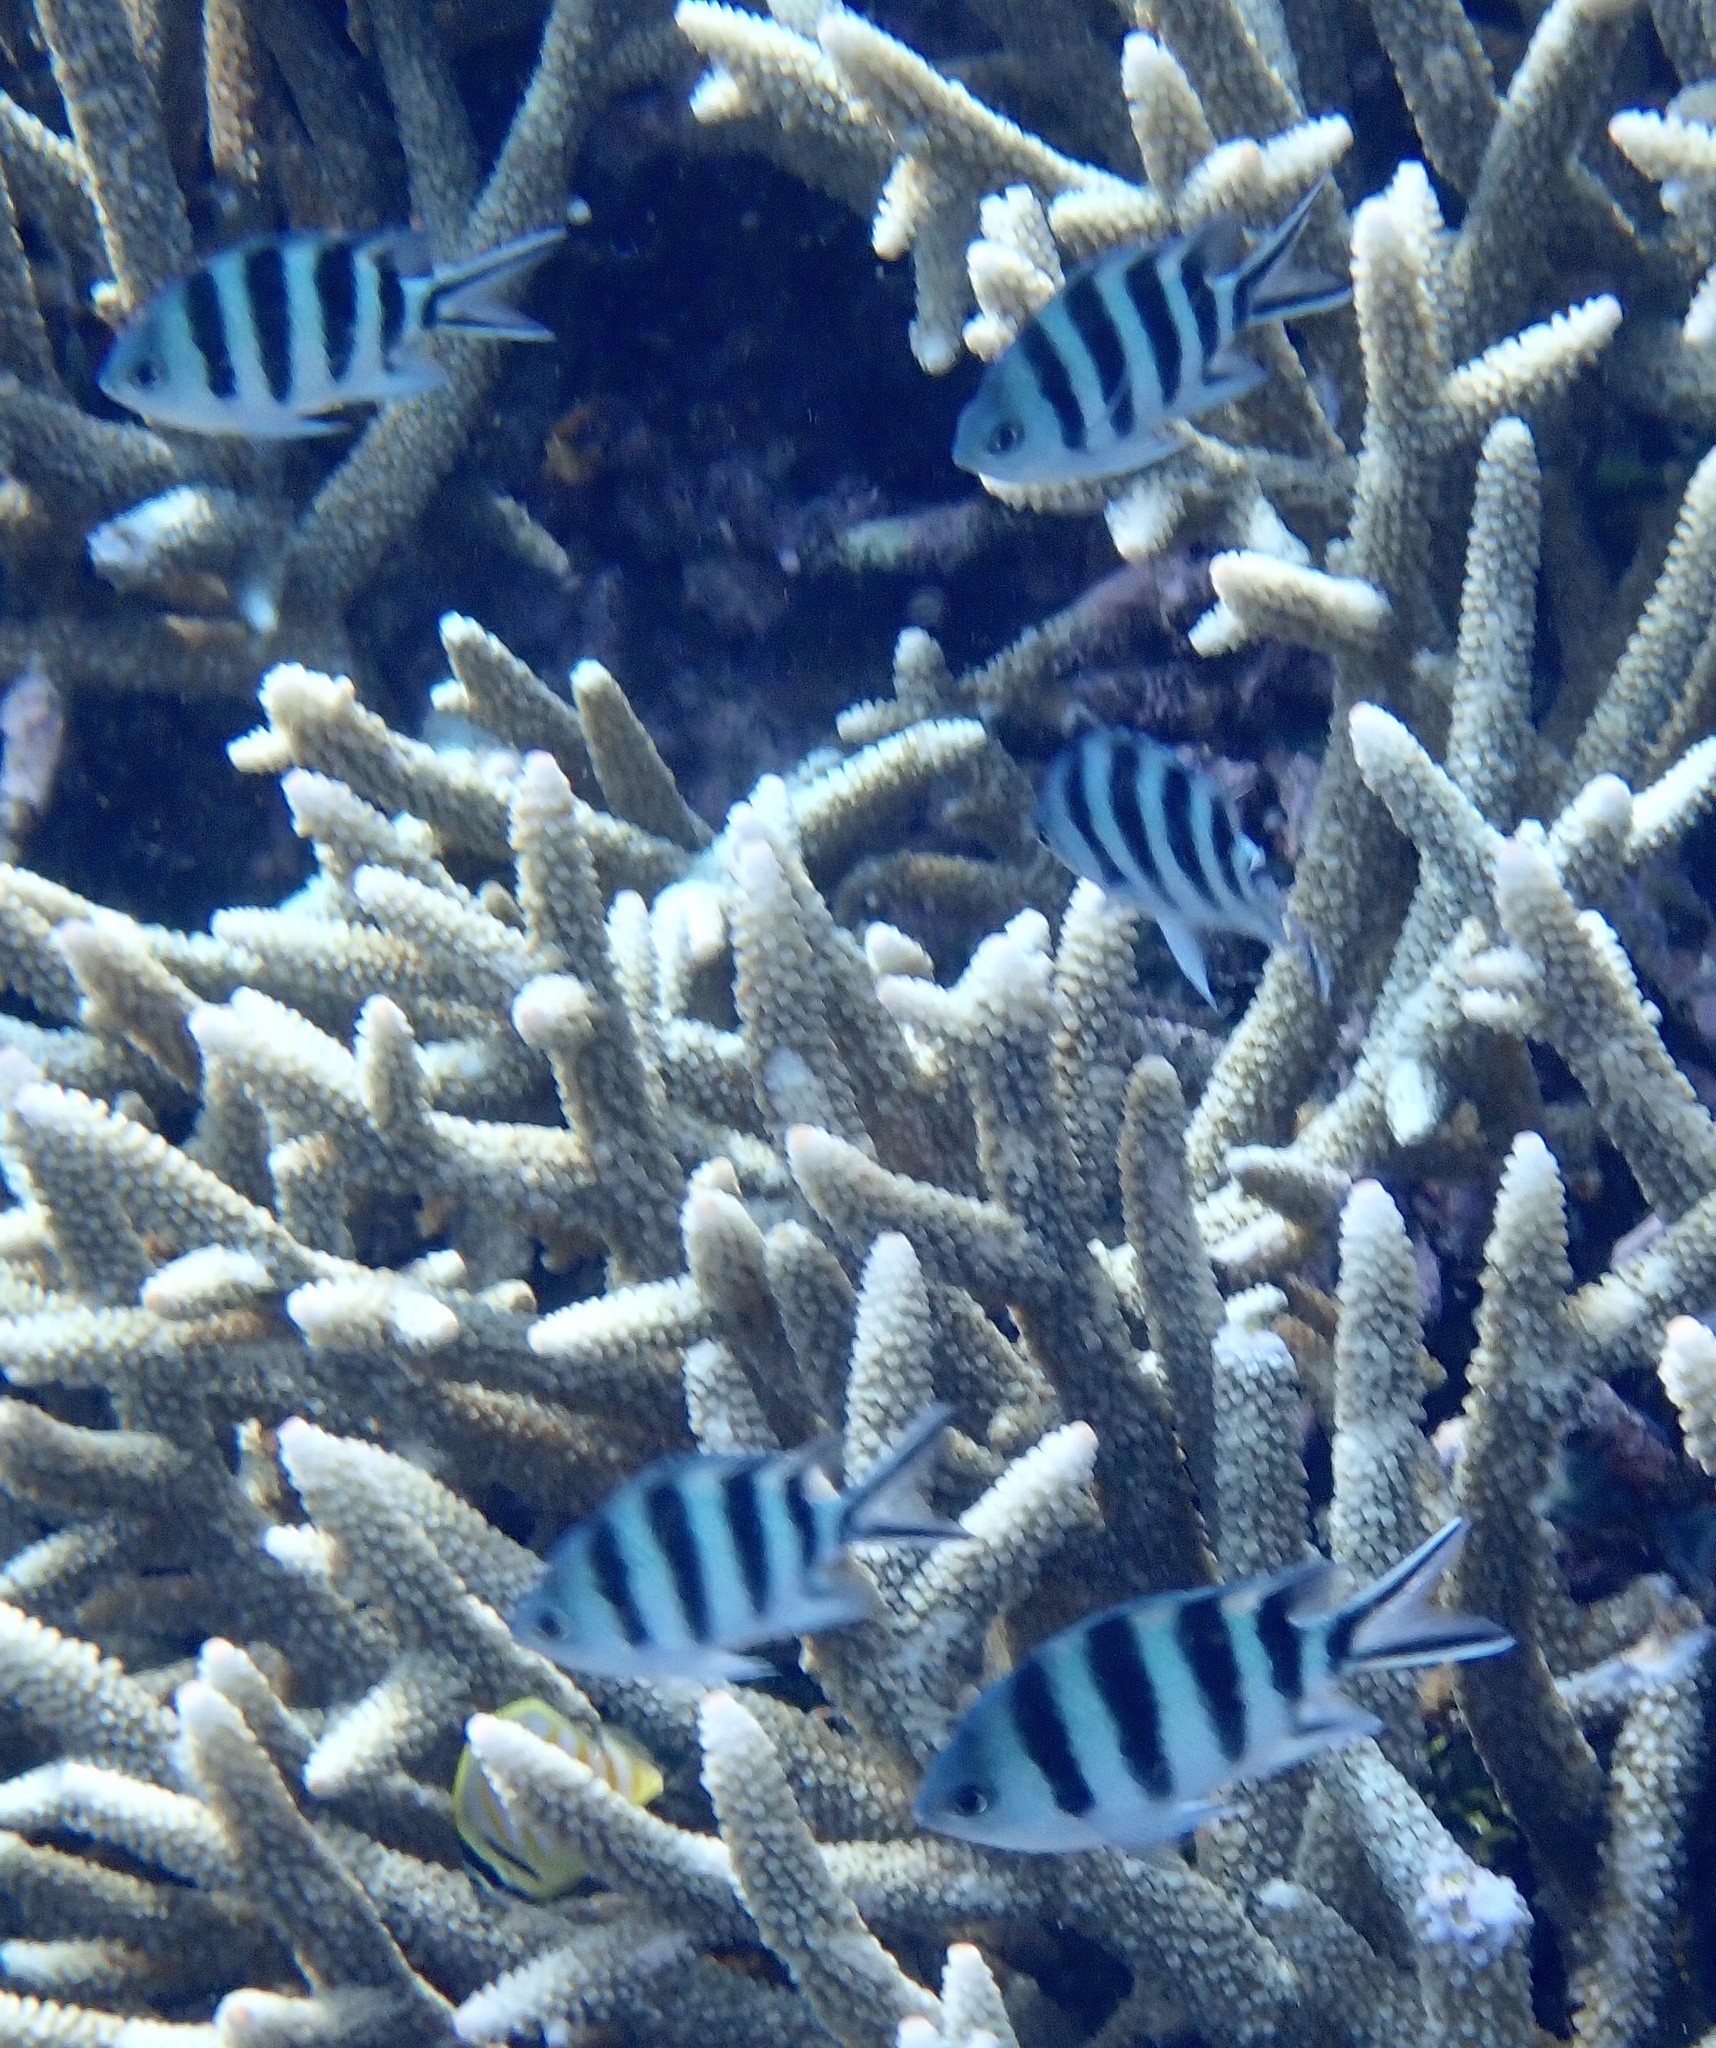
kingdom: Animalia
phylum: Chordata
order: Perciformes
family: Pomacentridae
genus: Abudefduf
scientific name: Abudefduf sexfasciatus
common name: Scissortail sergeant
